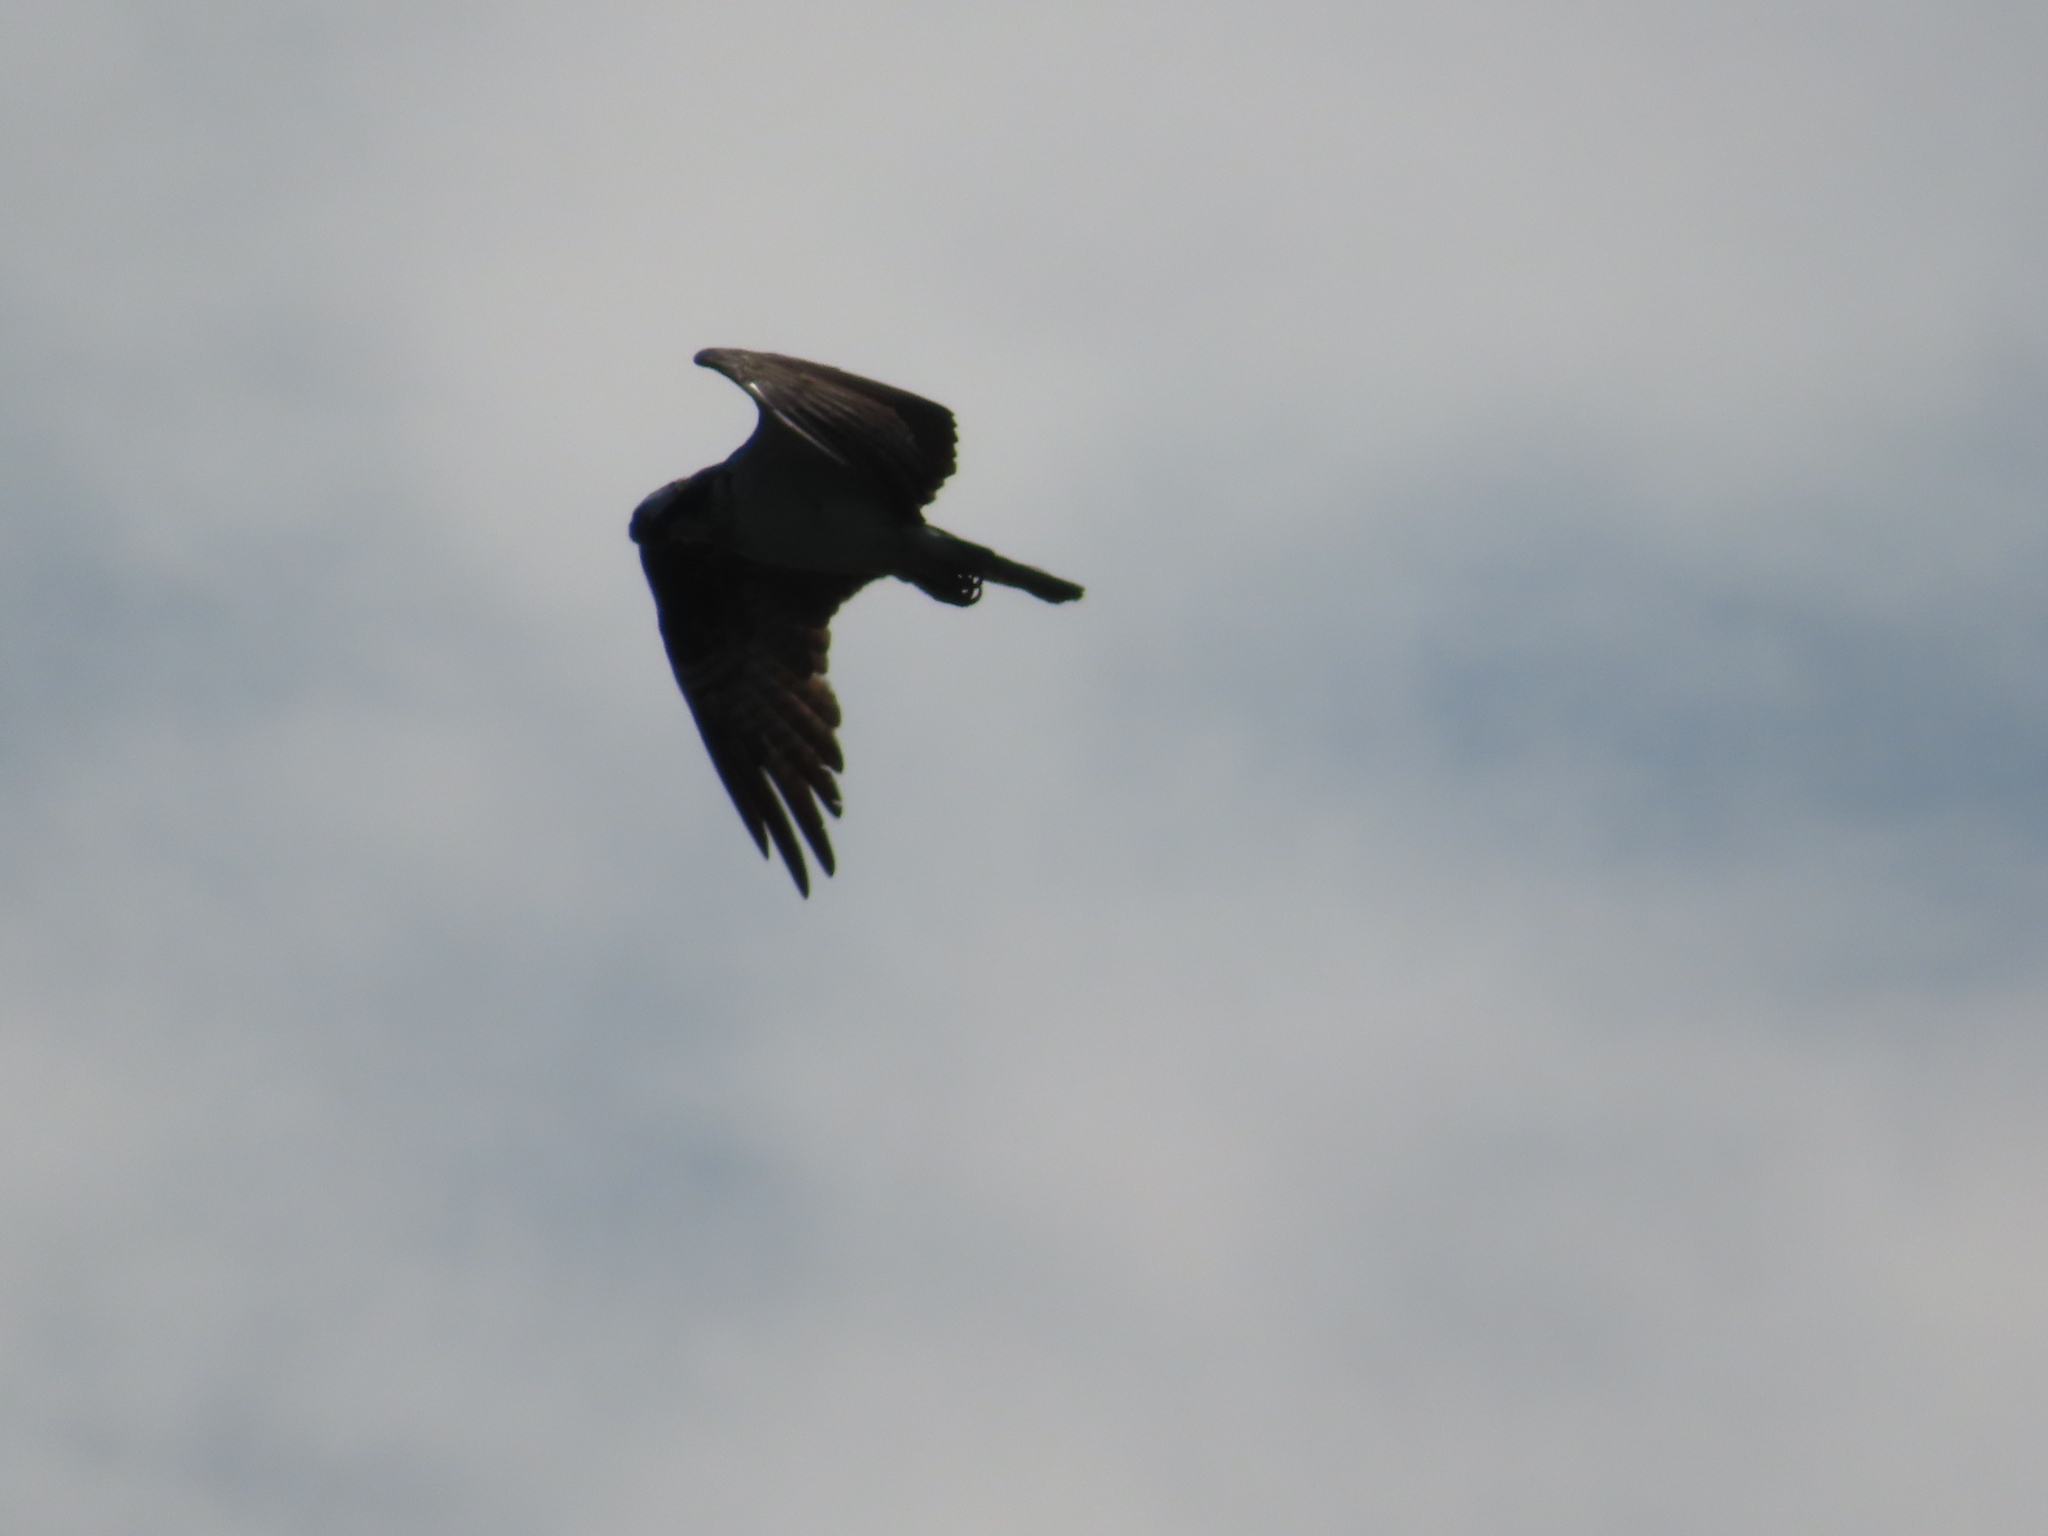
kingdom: Animalia
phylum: Chordata
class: Aves
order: Accipitriformes
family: Pandionidae
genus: Pandion
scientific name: Pandion haliaetus
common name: Osprey
